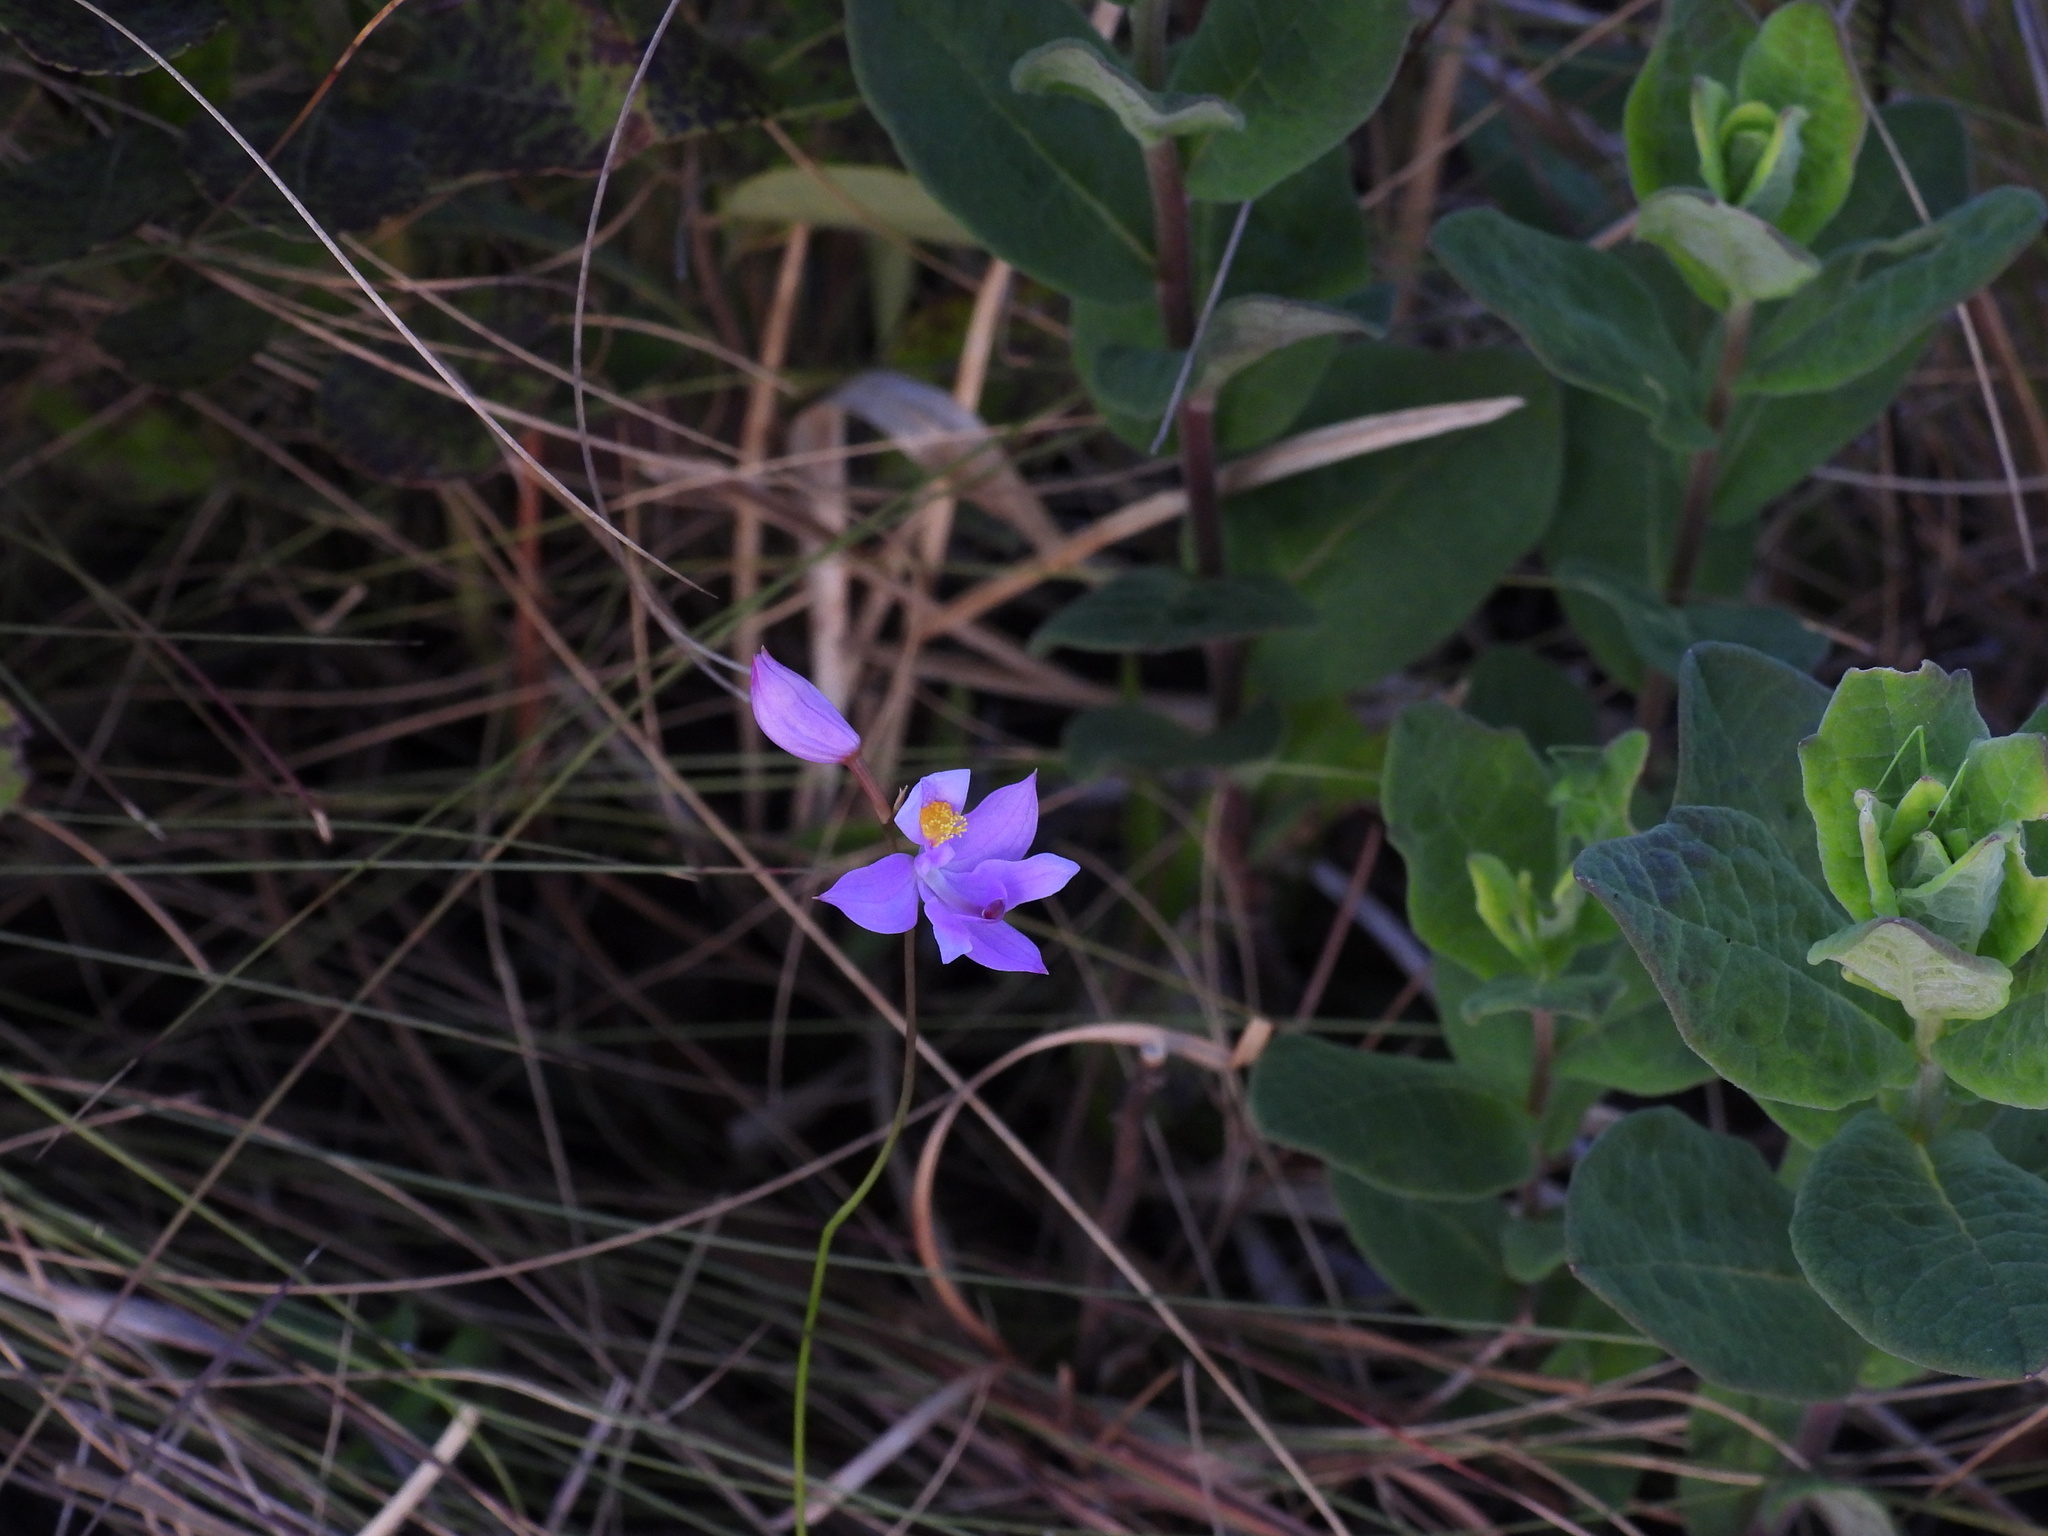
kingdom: Plantae
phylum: Tracheophyta
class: Liliopsida
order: Asparagales
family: Orchidaceae
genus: Calopogon
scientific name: Calopogon barbatus
